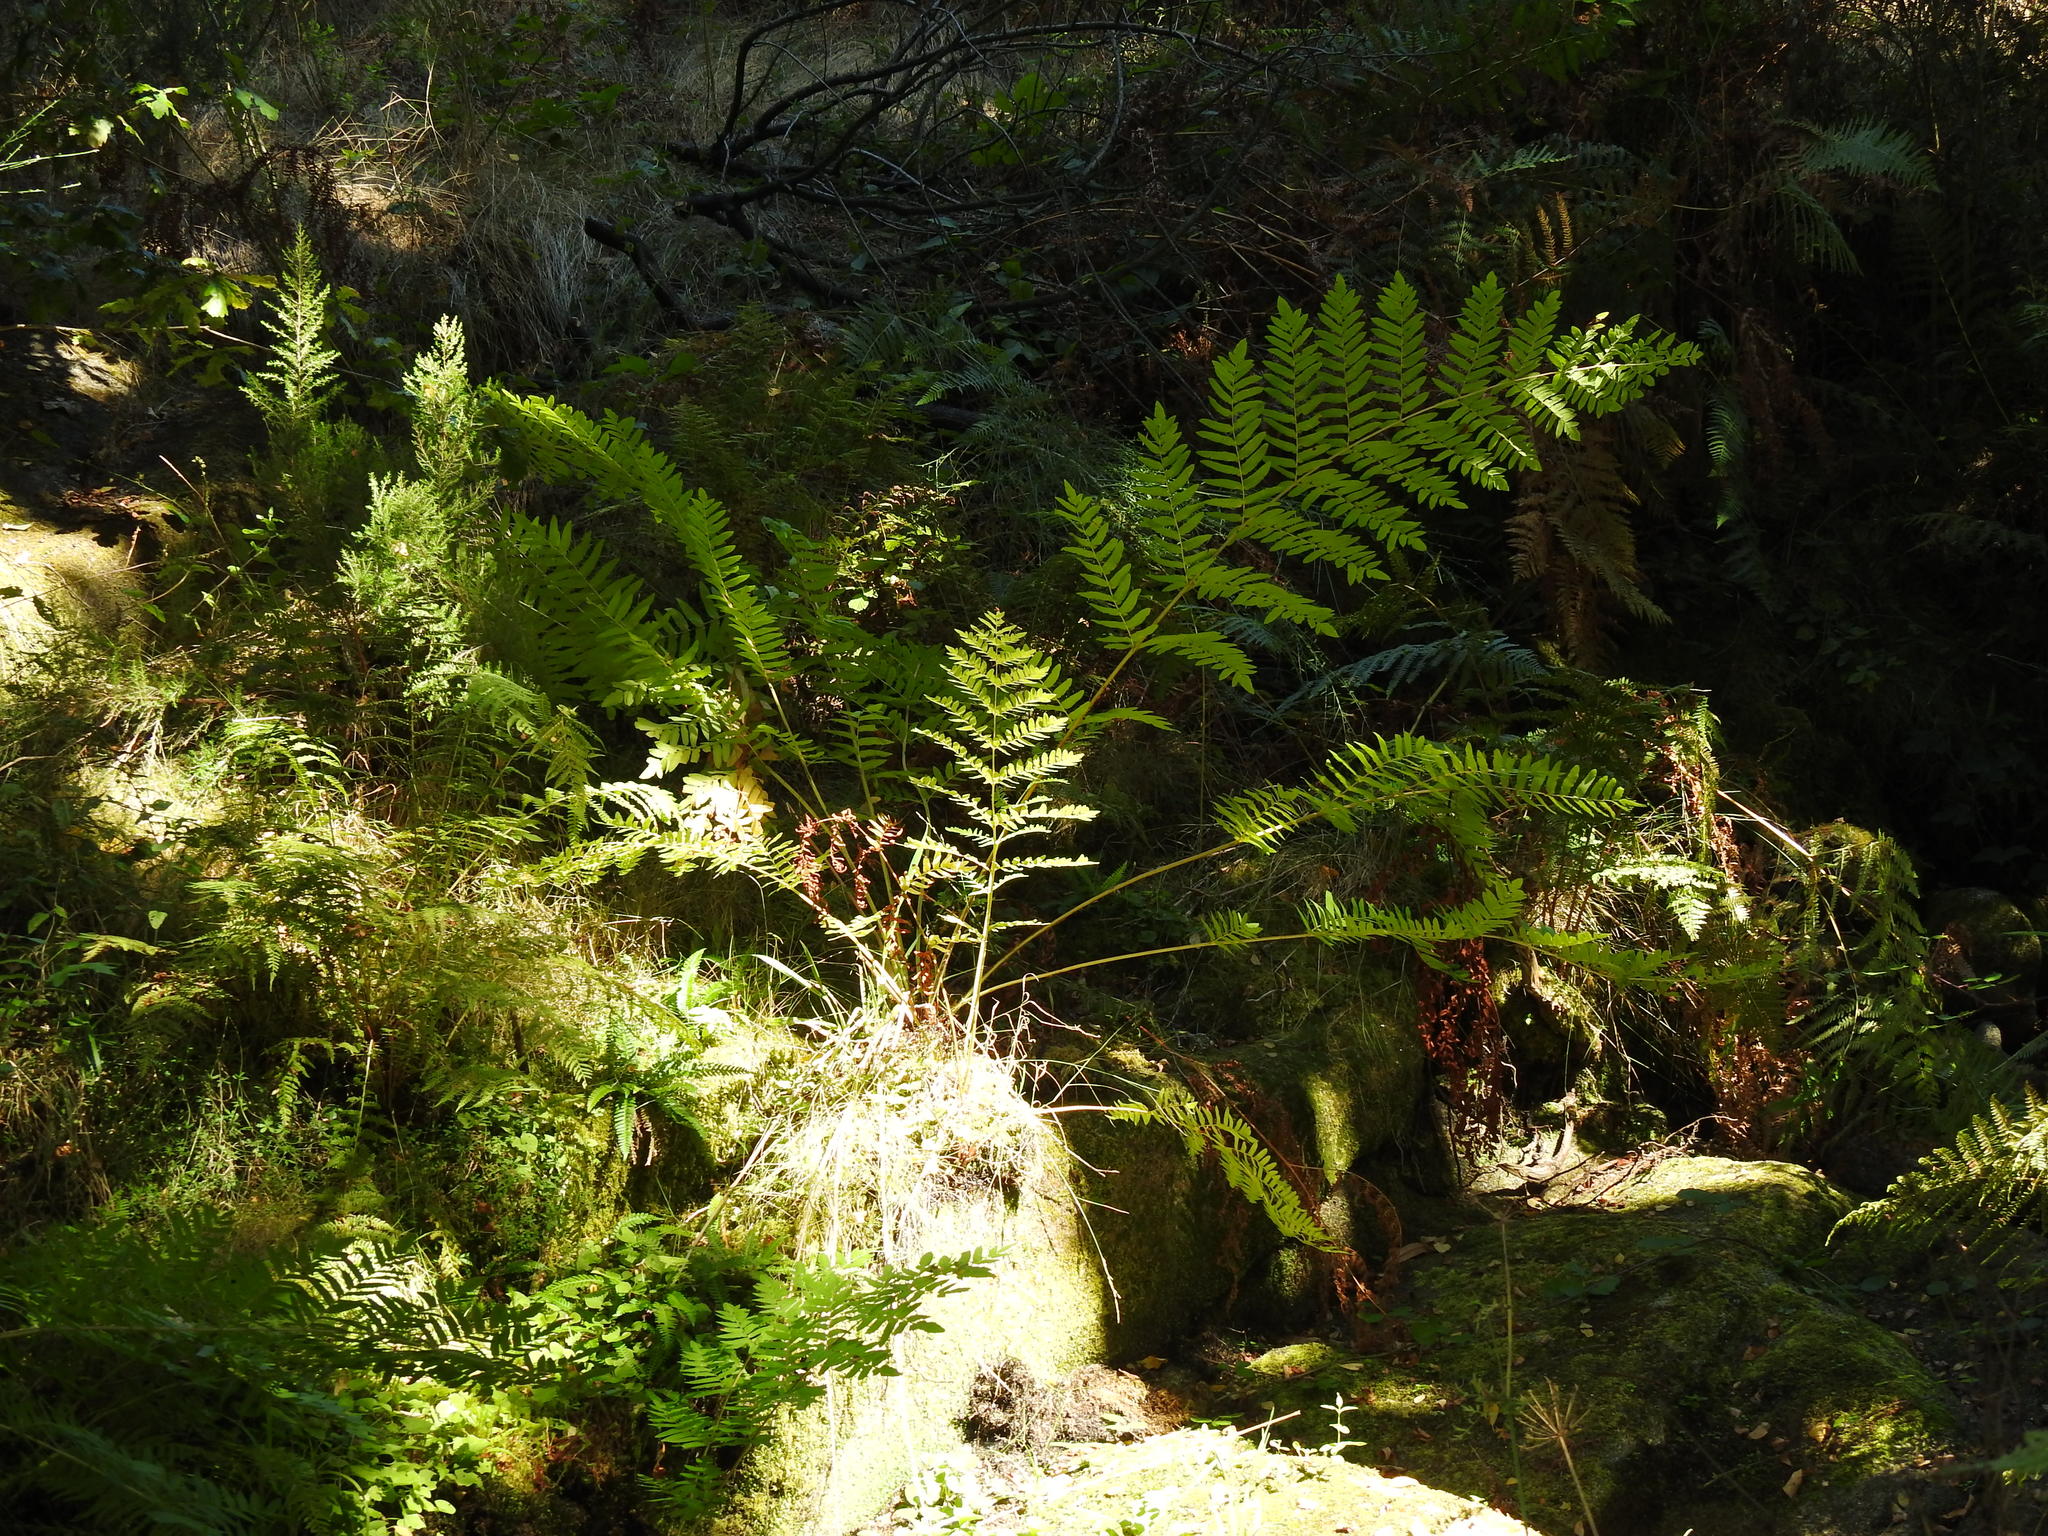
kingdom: Plantae
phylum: Tracheophyta
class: Polypodiopsida
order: Osmundales
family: Osmundaceae
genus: Osmunda
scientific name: Osmunda regalis
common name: Royal fern
